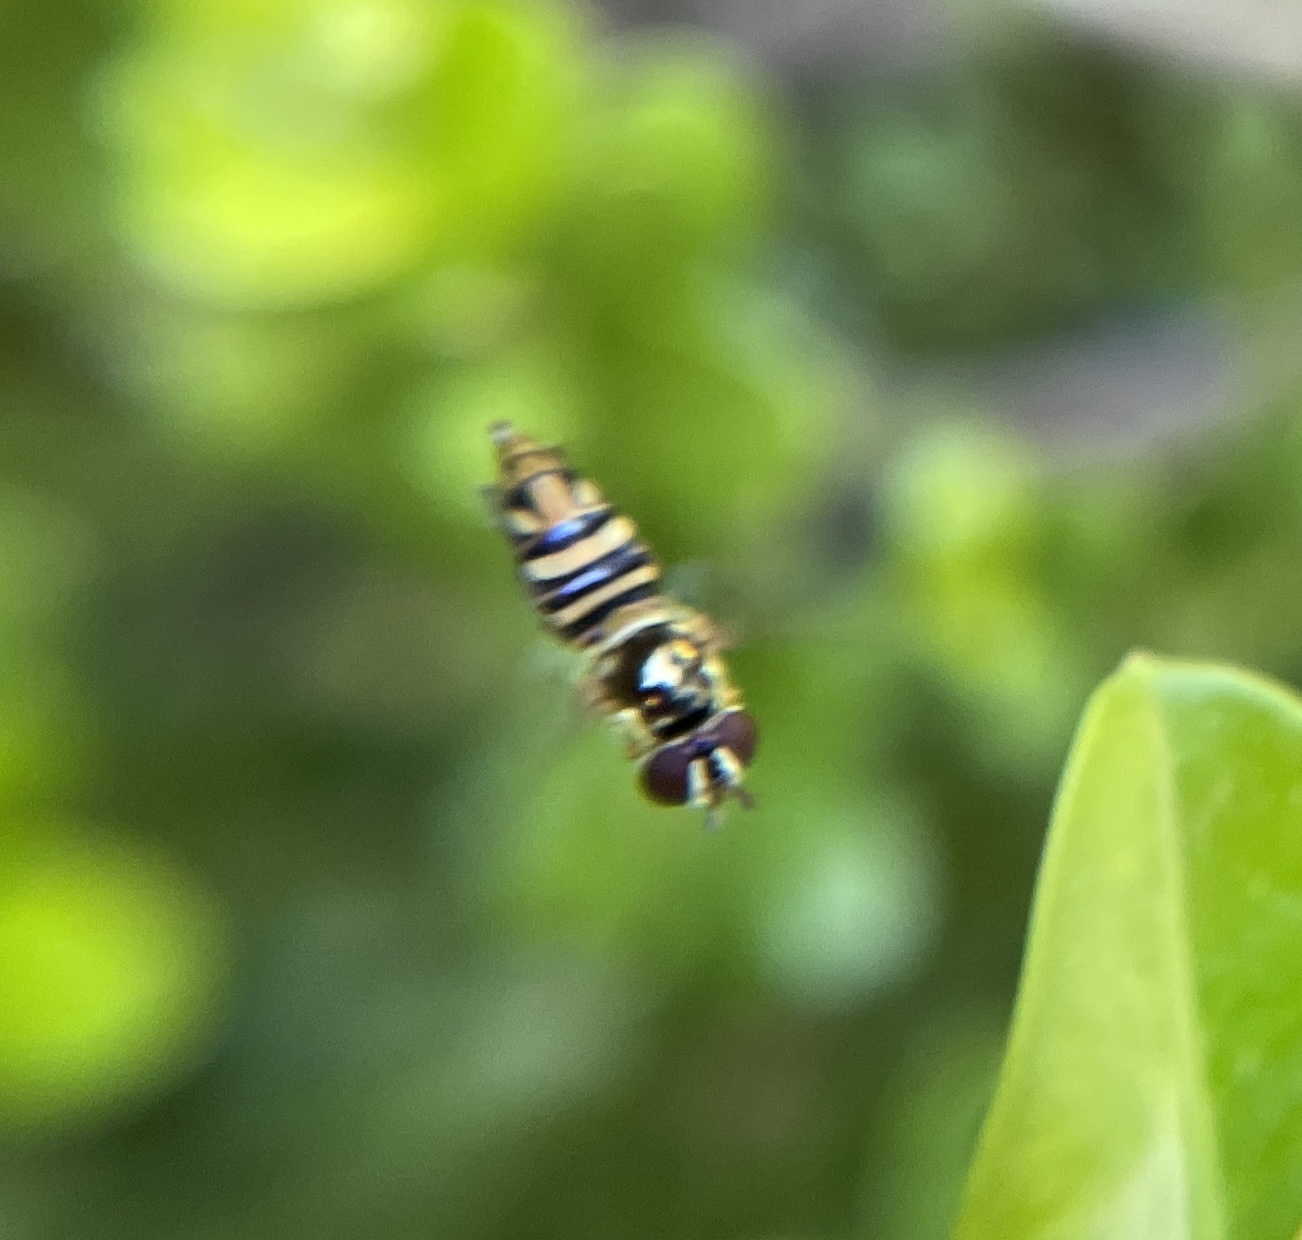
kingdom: Animalia
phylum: Arthropoda
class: Insecta
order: Diptera
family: Syrphidae
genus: Allograpta
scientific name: Allograpta
